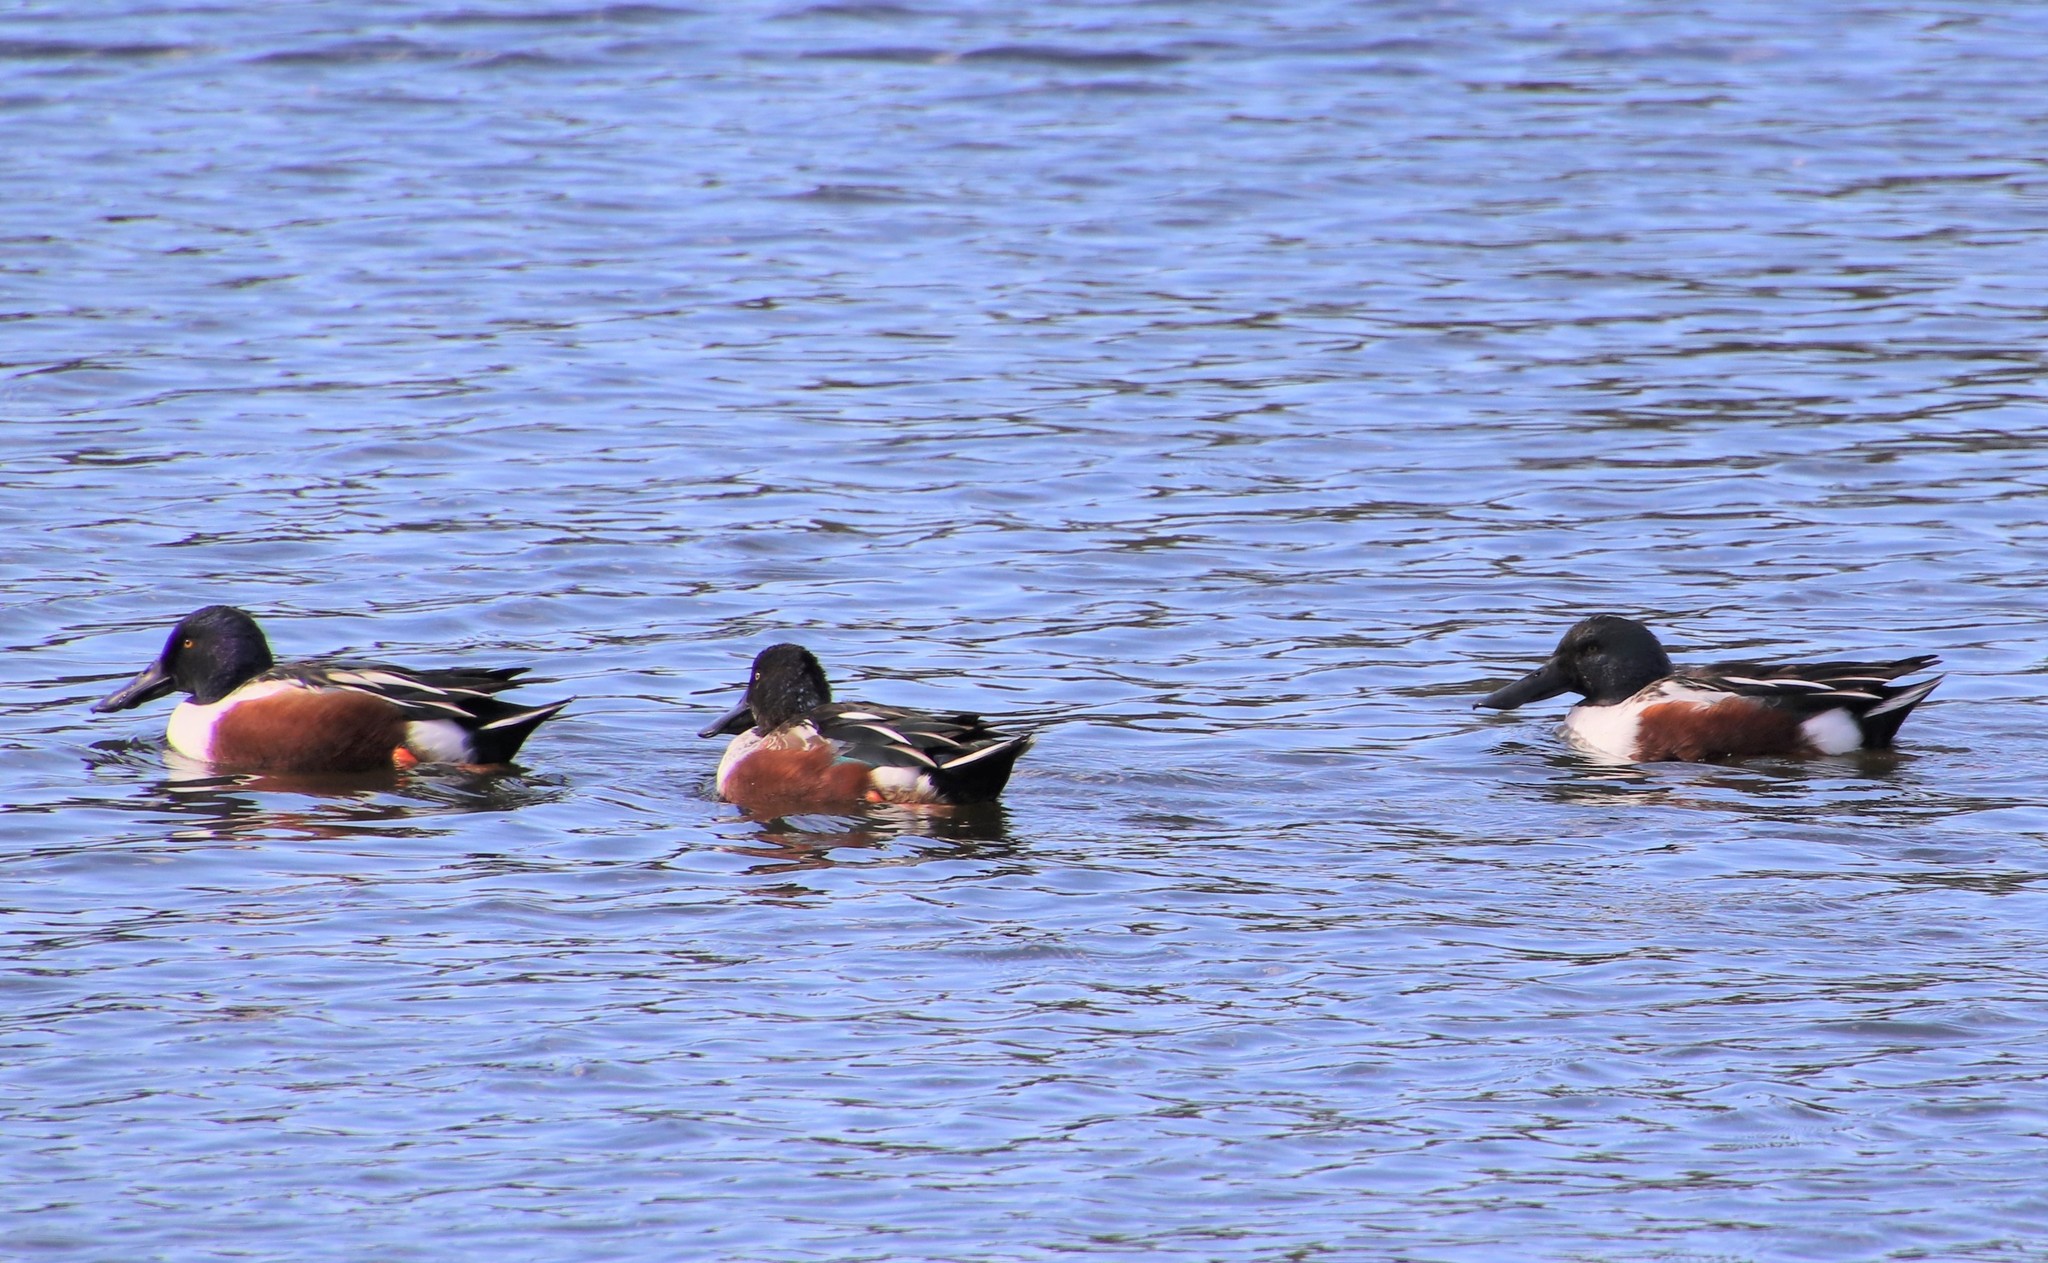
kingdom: Animalia
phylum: Chordata
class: Aves
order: Anseriformes
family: Anatidae
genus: Spatula
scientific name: Spatula clypeata
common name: Northern shoveler
